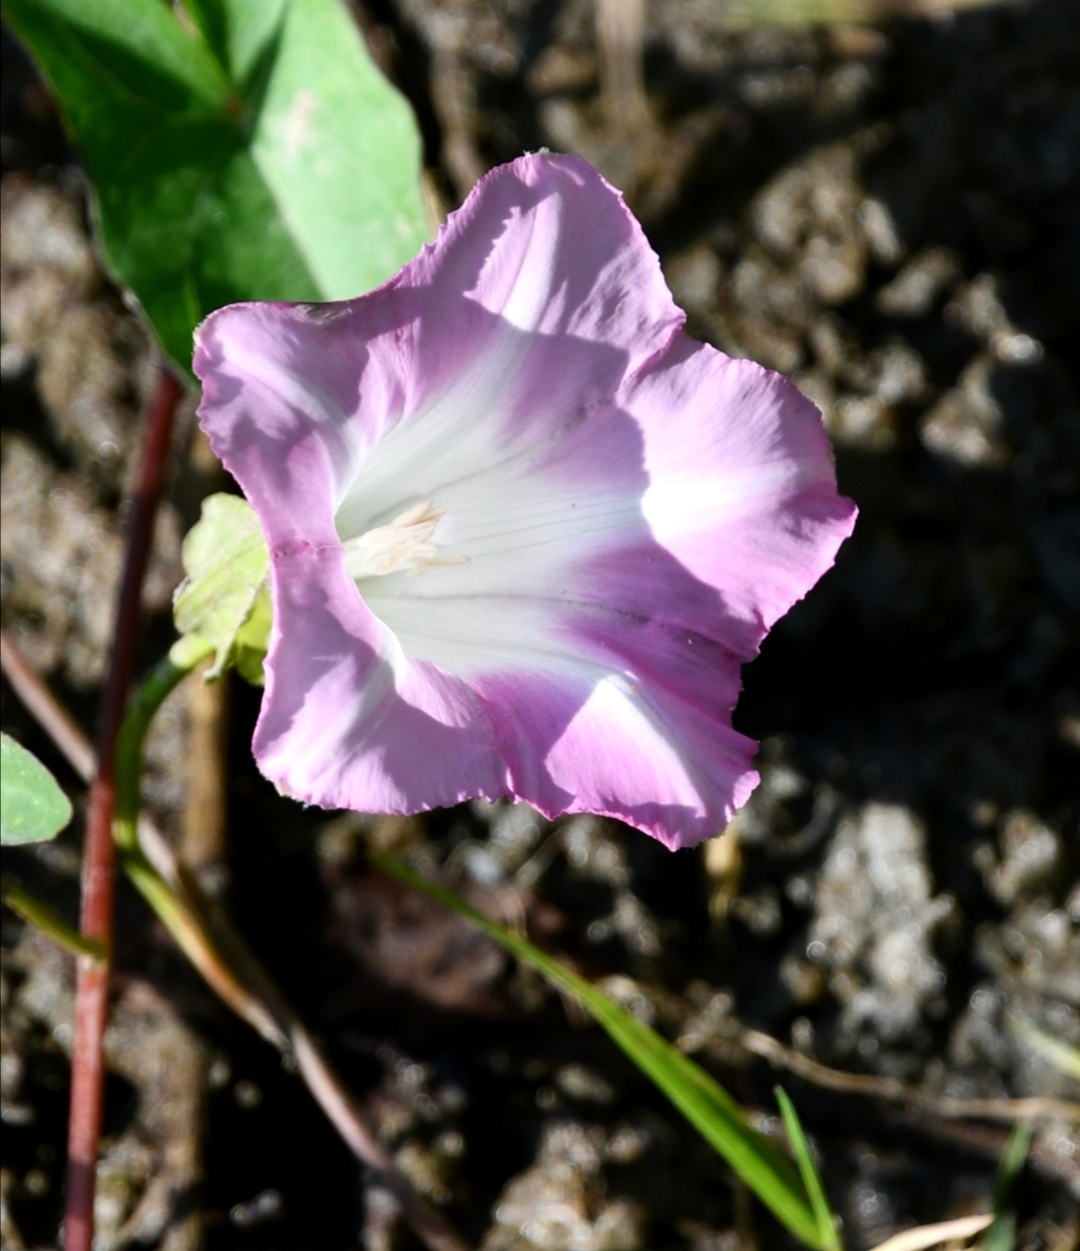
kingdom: Plantae
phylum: Tracheophyta
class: Magnoliopsida
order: Solanales
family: Convolvulaceae
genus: Calystegia
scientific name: Calystegia sepium
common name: Hedge bindweed
